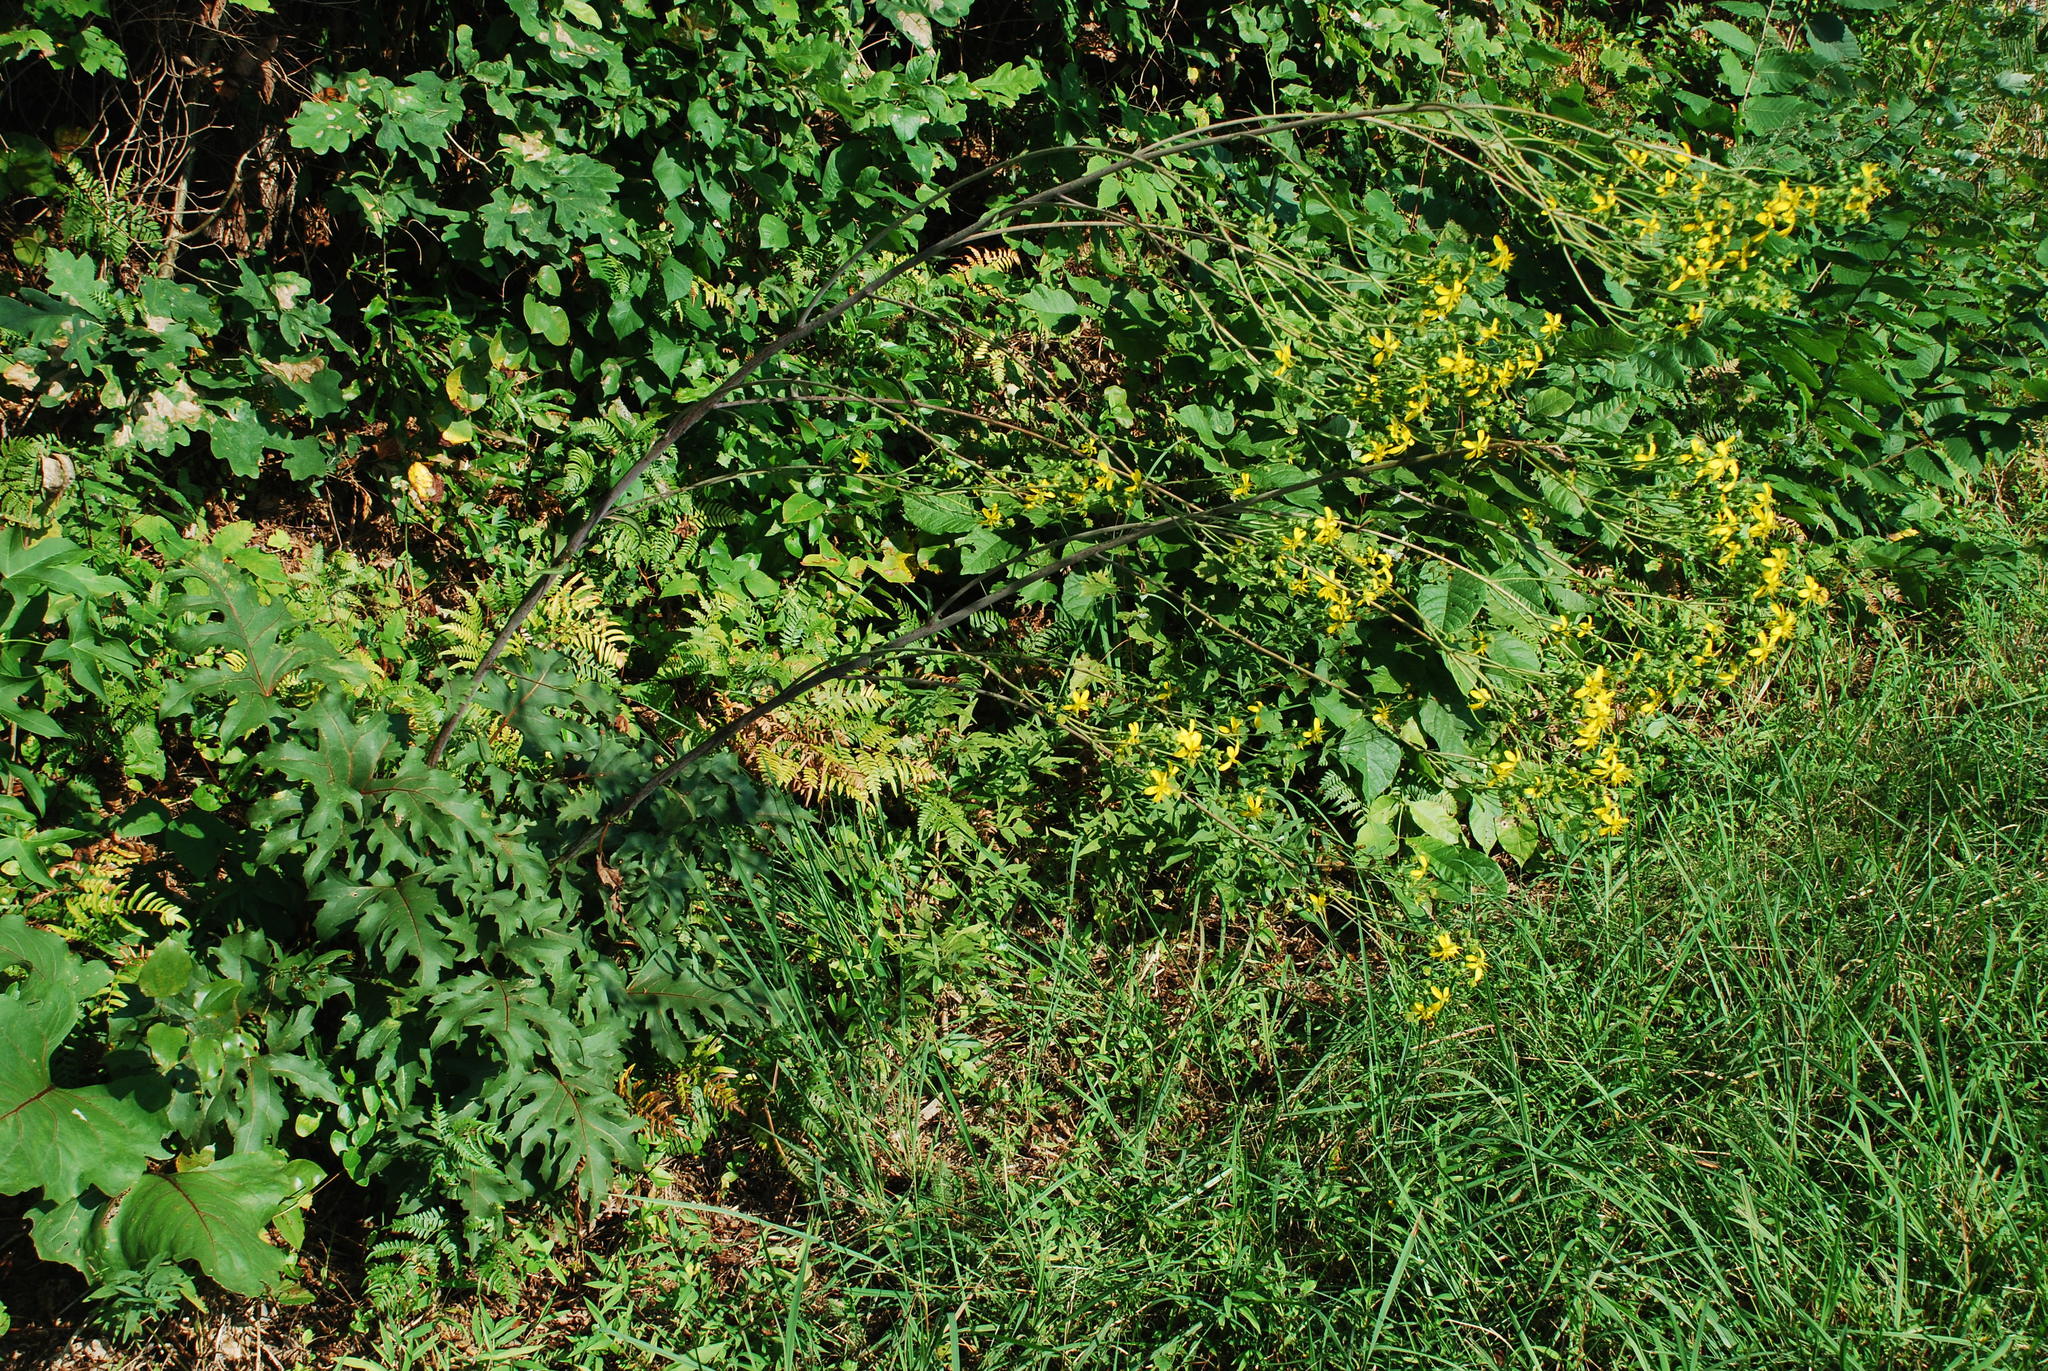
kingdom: Plantae
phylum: Tracheophyta
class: Magnoliopsida
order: Asterales
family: Asteraceae
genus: Silphium
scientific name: Silphium compositum
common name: Lesser basal-leaf rosinweed
